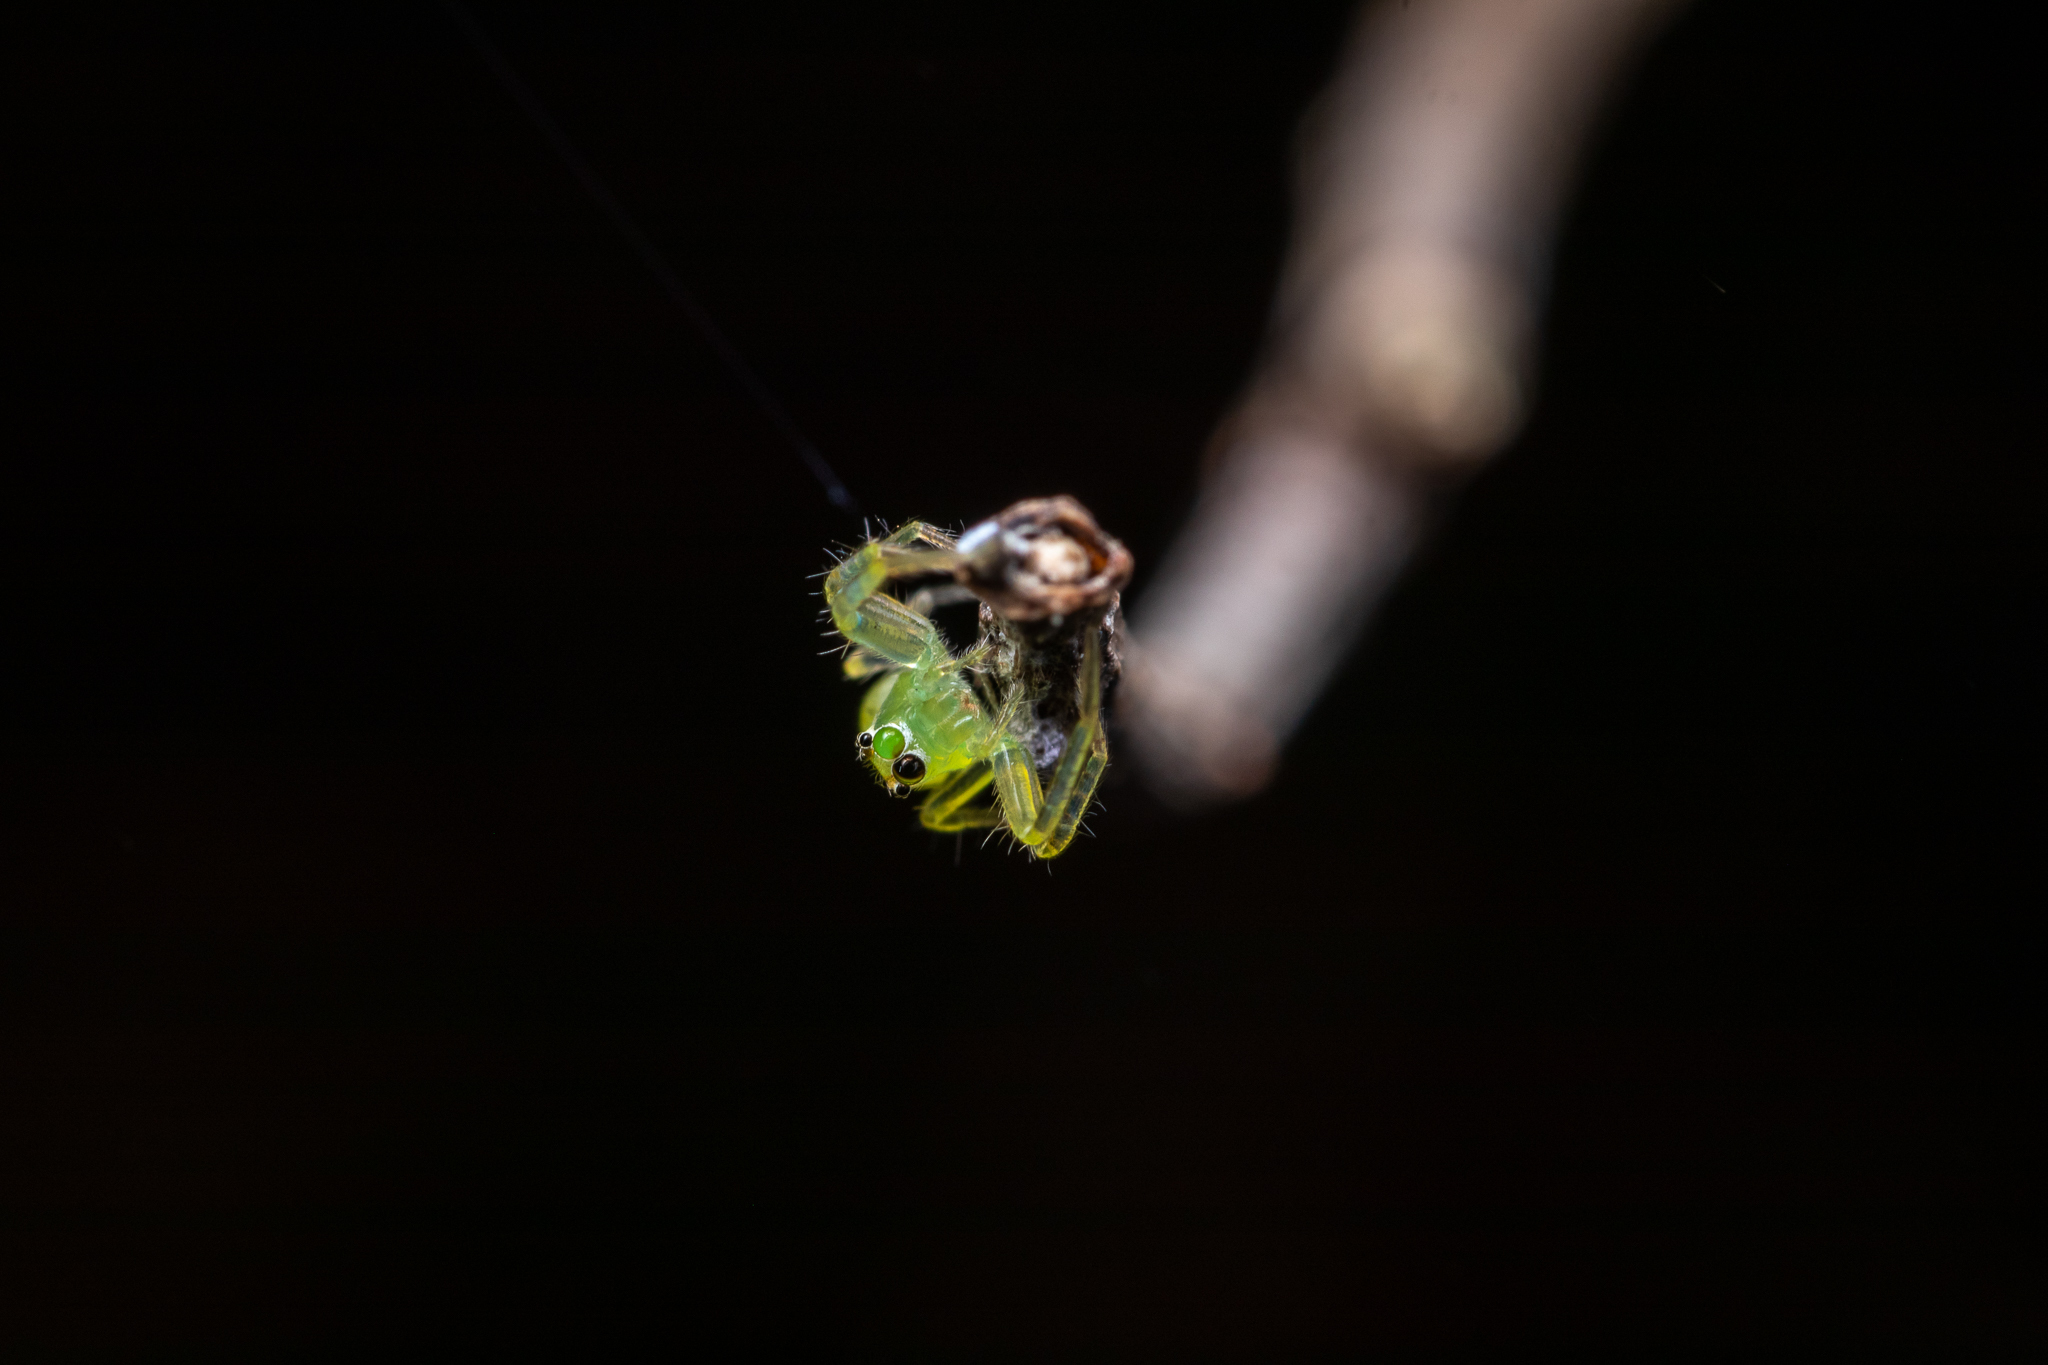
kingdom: Animalia
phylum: Arthropoda
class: Arachnida
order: Araneae
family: Salticidae
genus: Lyssomanes
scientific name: Lyssomanes viridis
